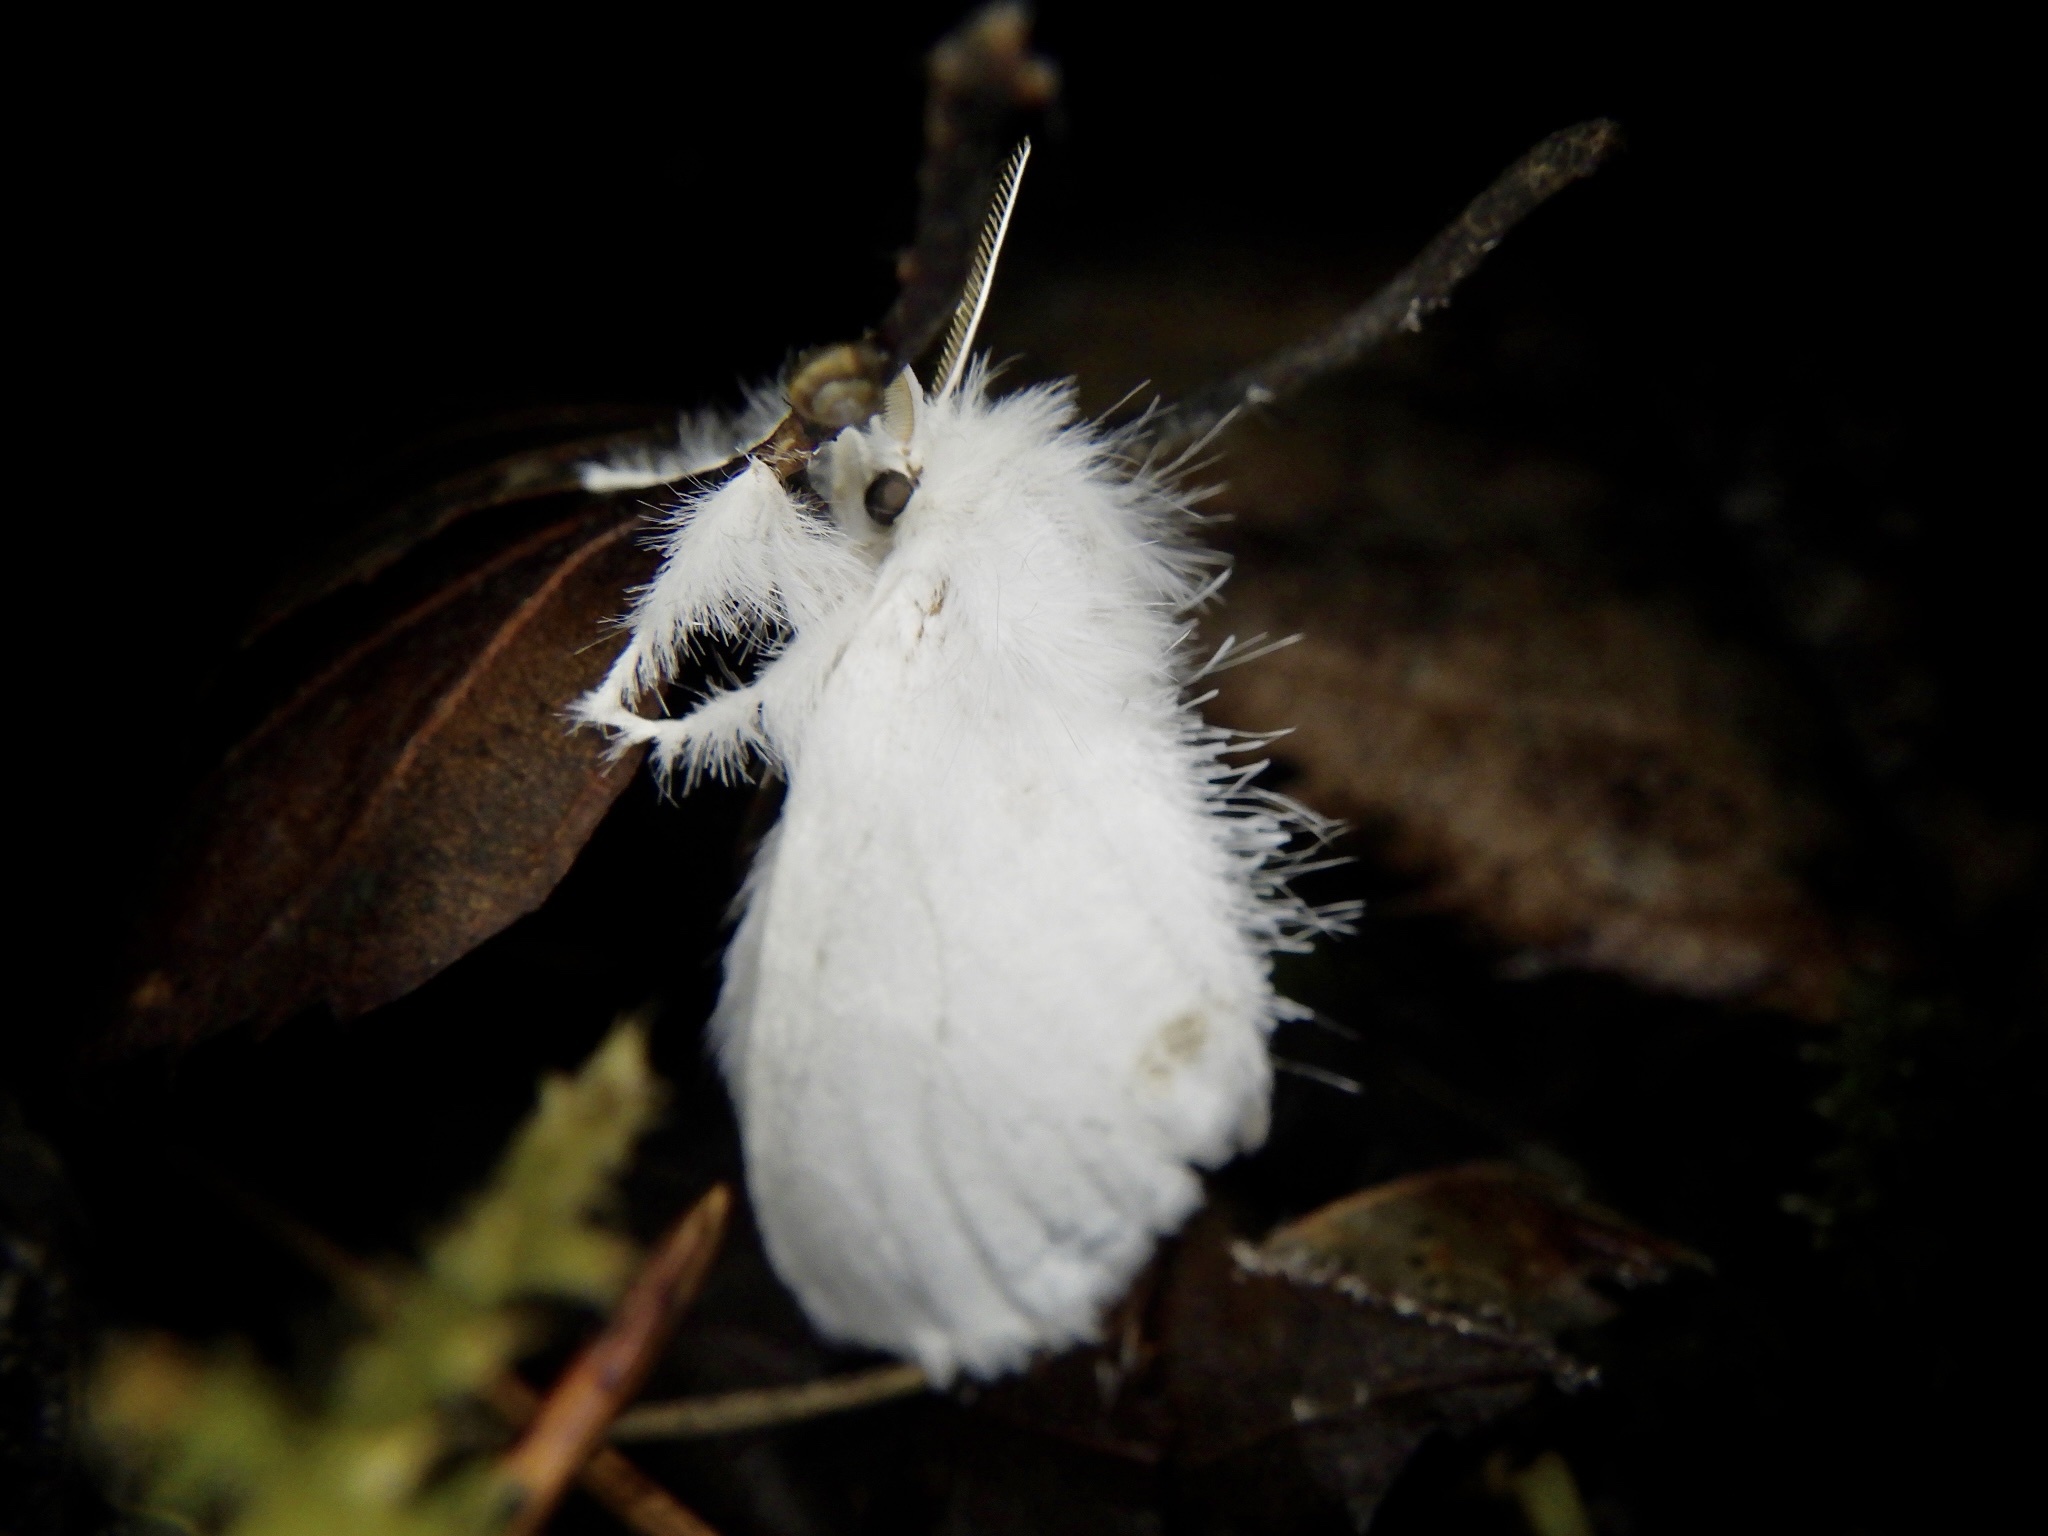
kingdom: Animalia
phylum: Arthropoda
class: Insecta
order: Lepidoptera
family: Erebidae
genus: Sphrageidus
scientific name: Sphrageidus similis
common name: Yellow-tail
